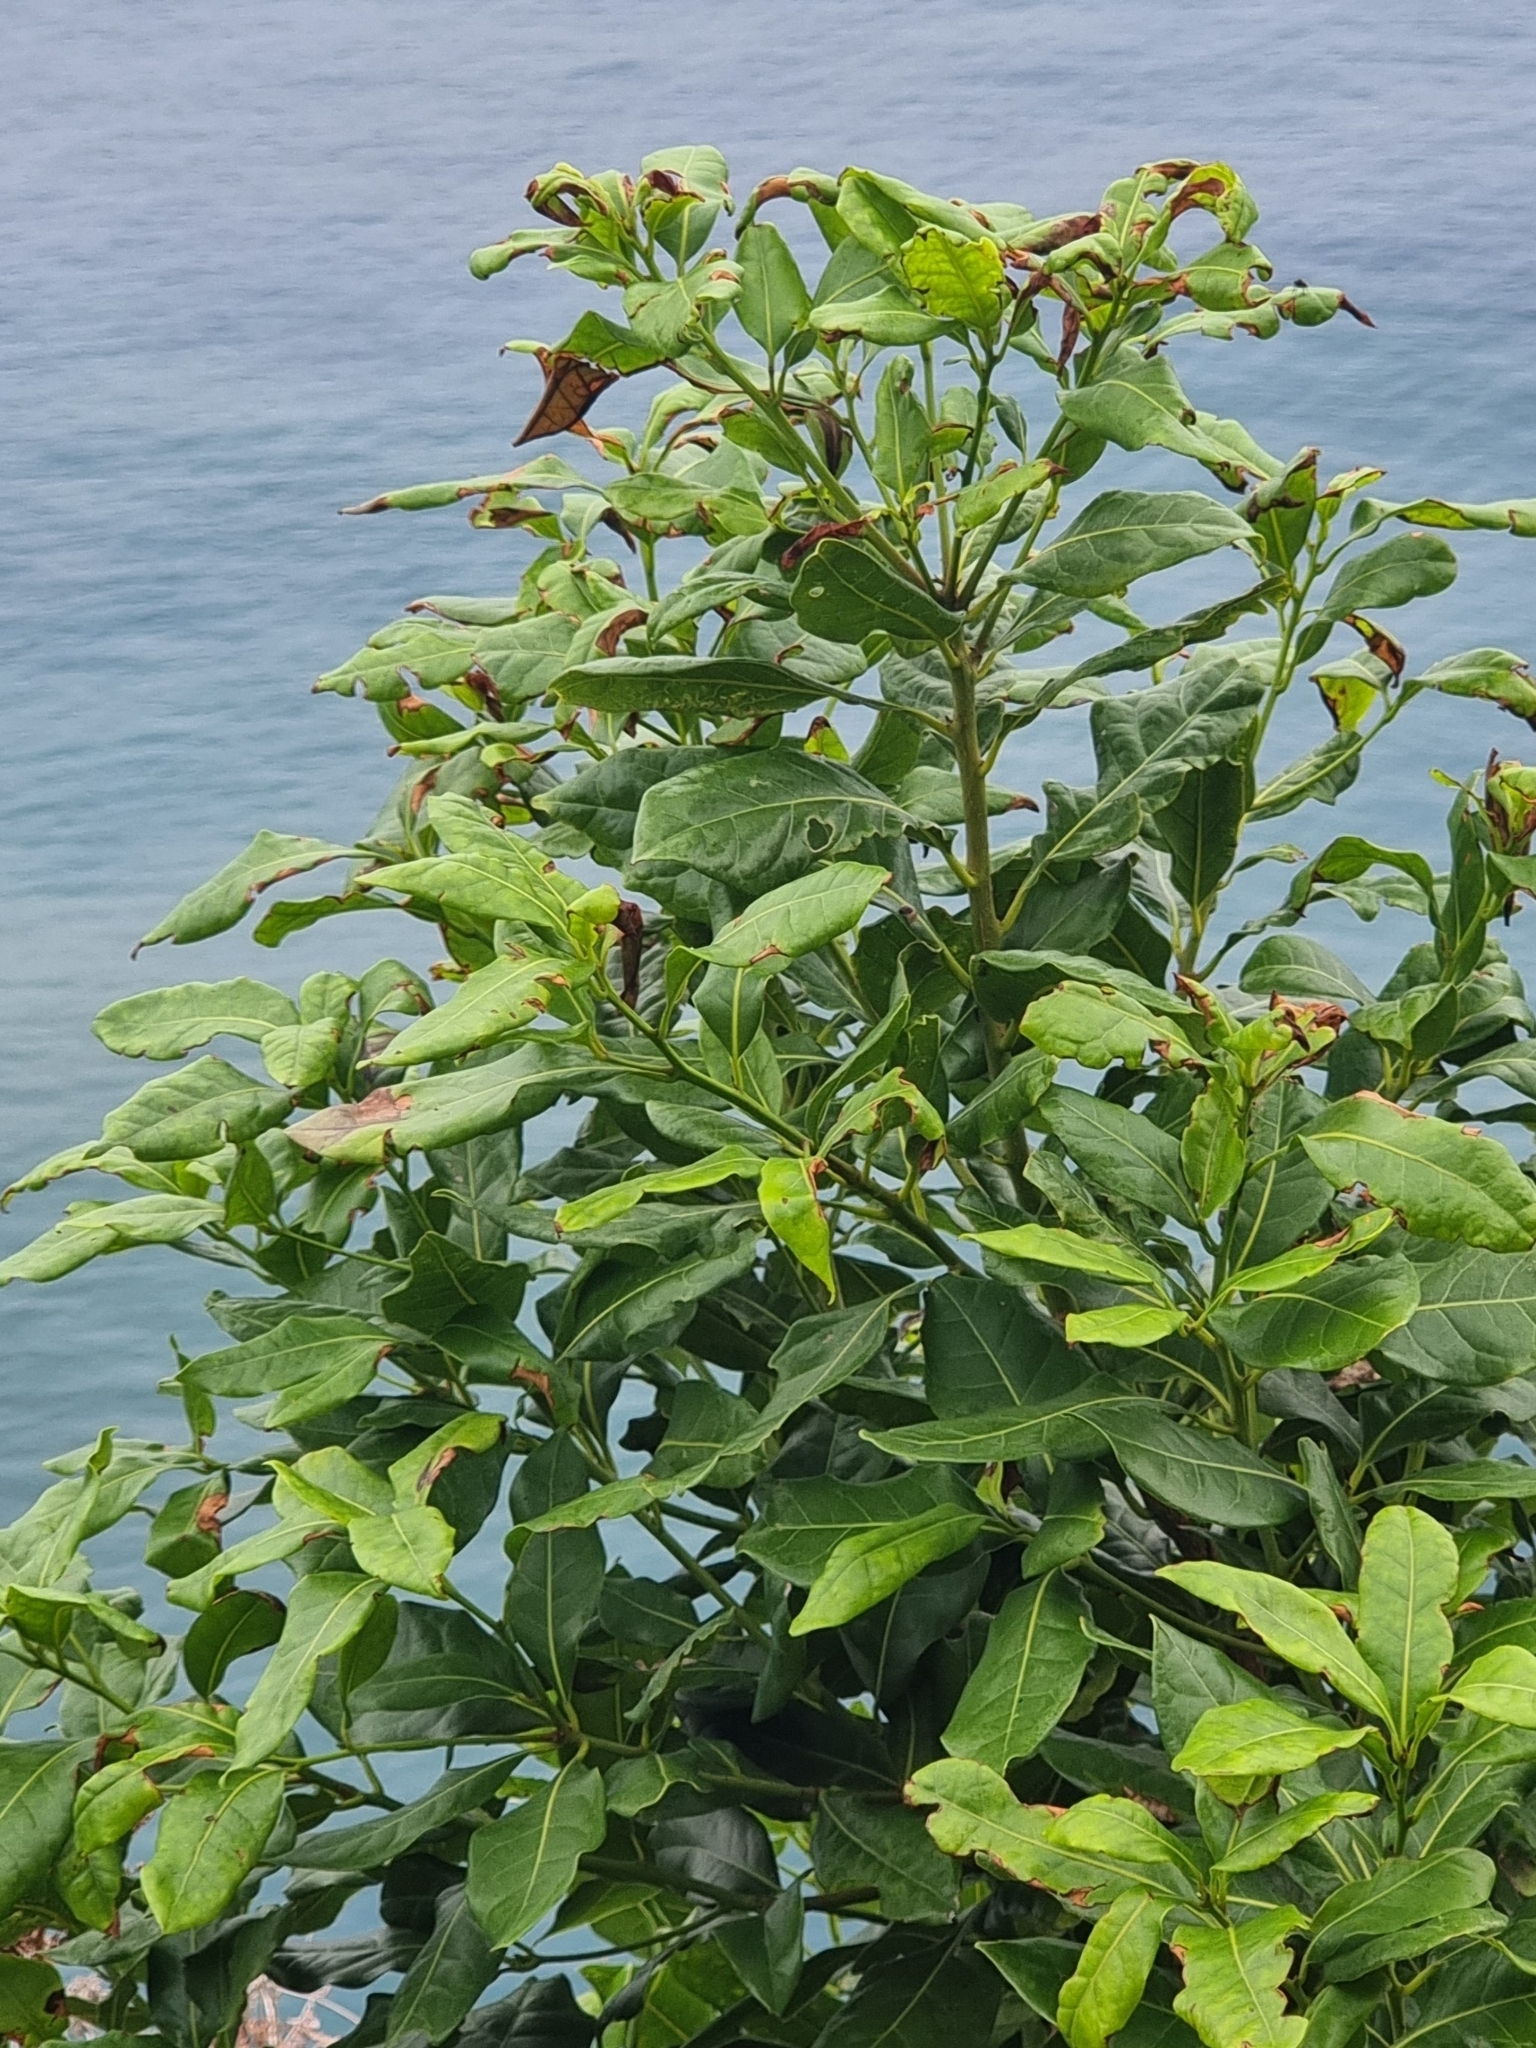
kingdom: Plantae
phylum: Tracheophyta
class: Magnoliopsida
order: Laurales
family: Lauraceae
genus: Apollonias
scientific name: Apollonias barbujana
